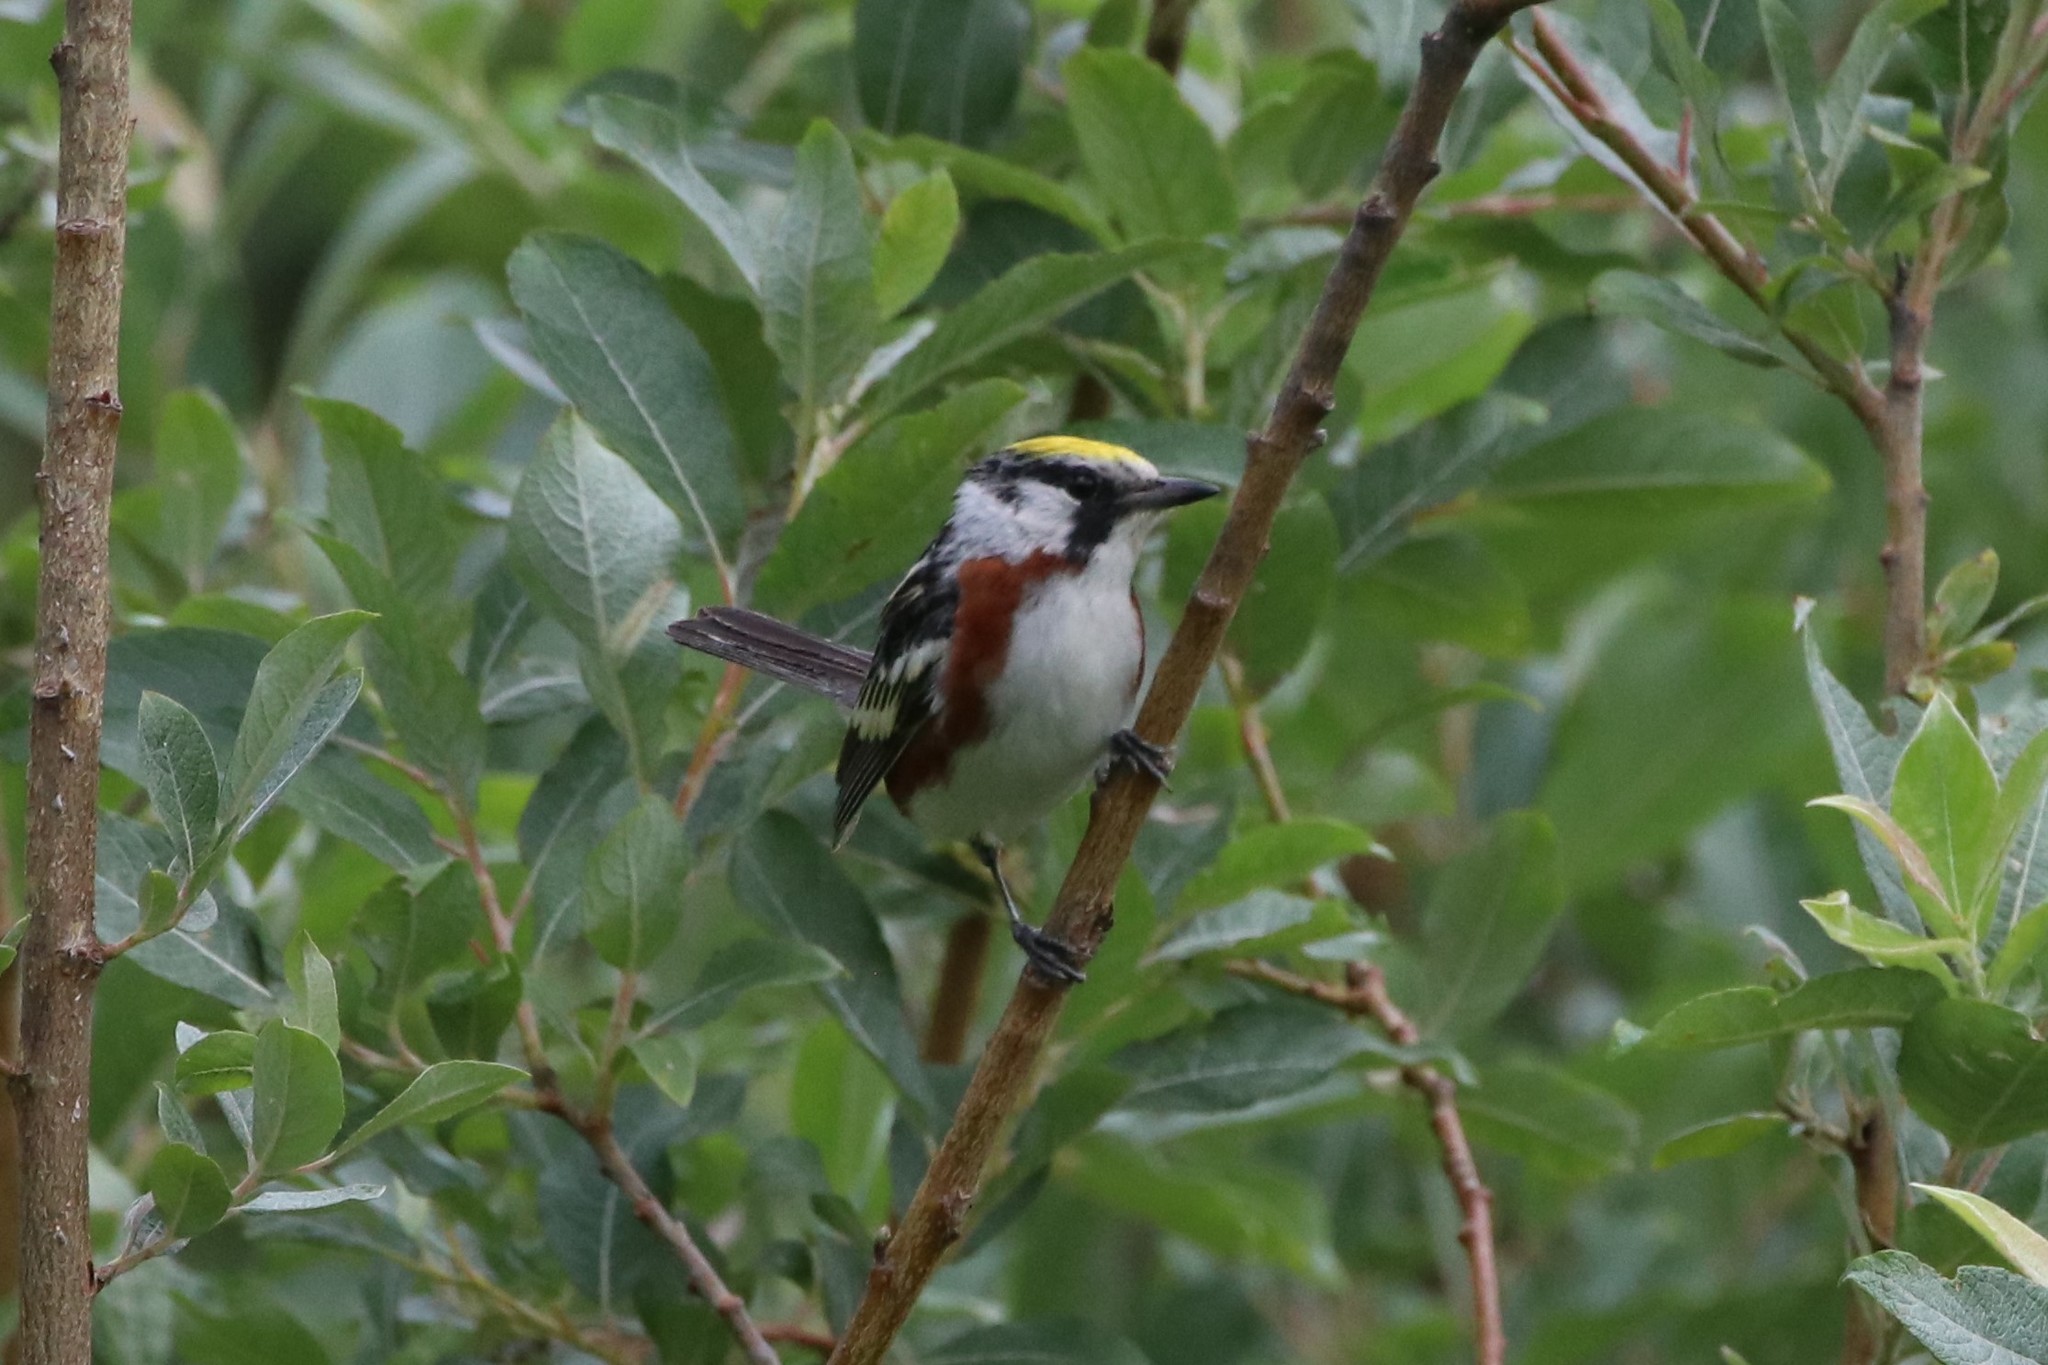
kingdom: Animalia
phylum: Chordata
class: Aves
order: Passeriformes
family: Parulidae
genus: Setophaga
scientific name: Setophaga pensylvanica
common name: Chestnut-sided warbler
